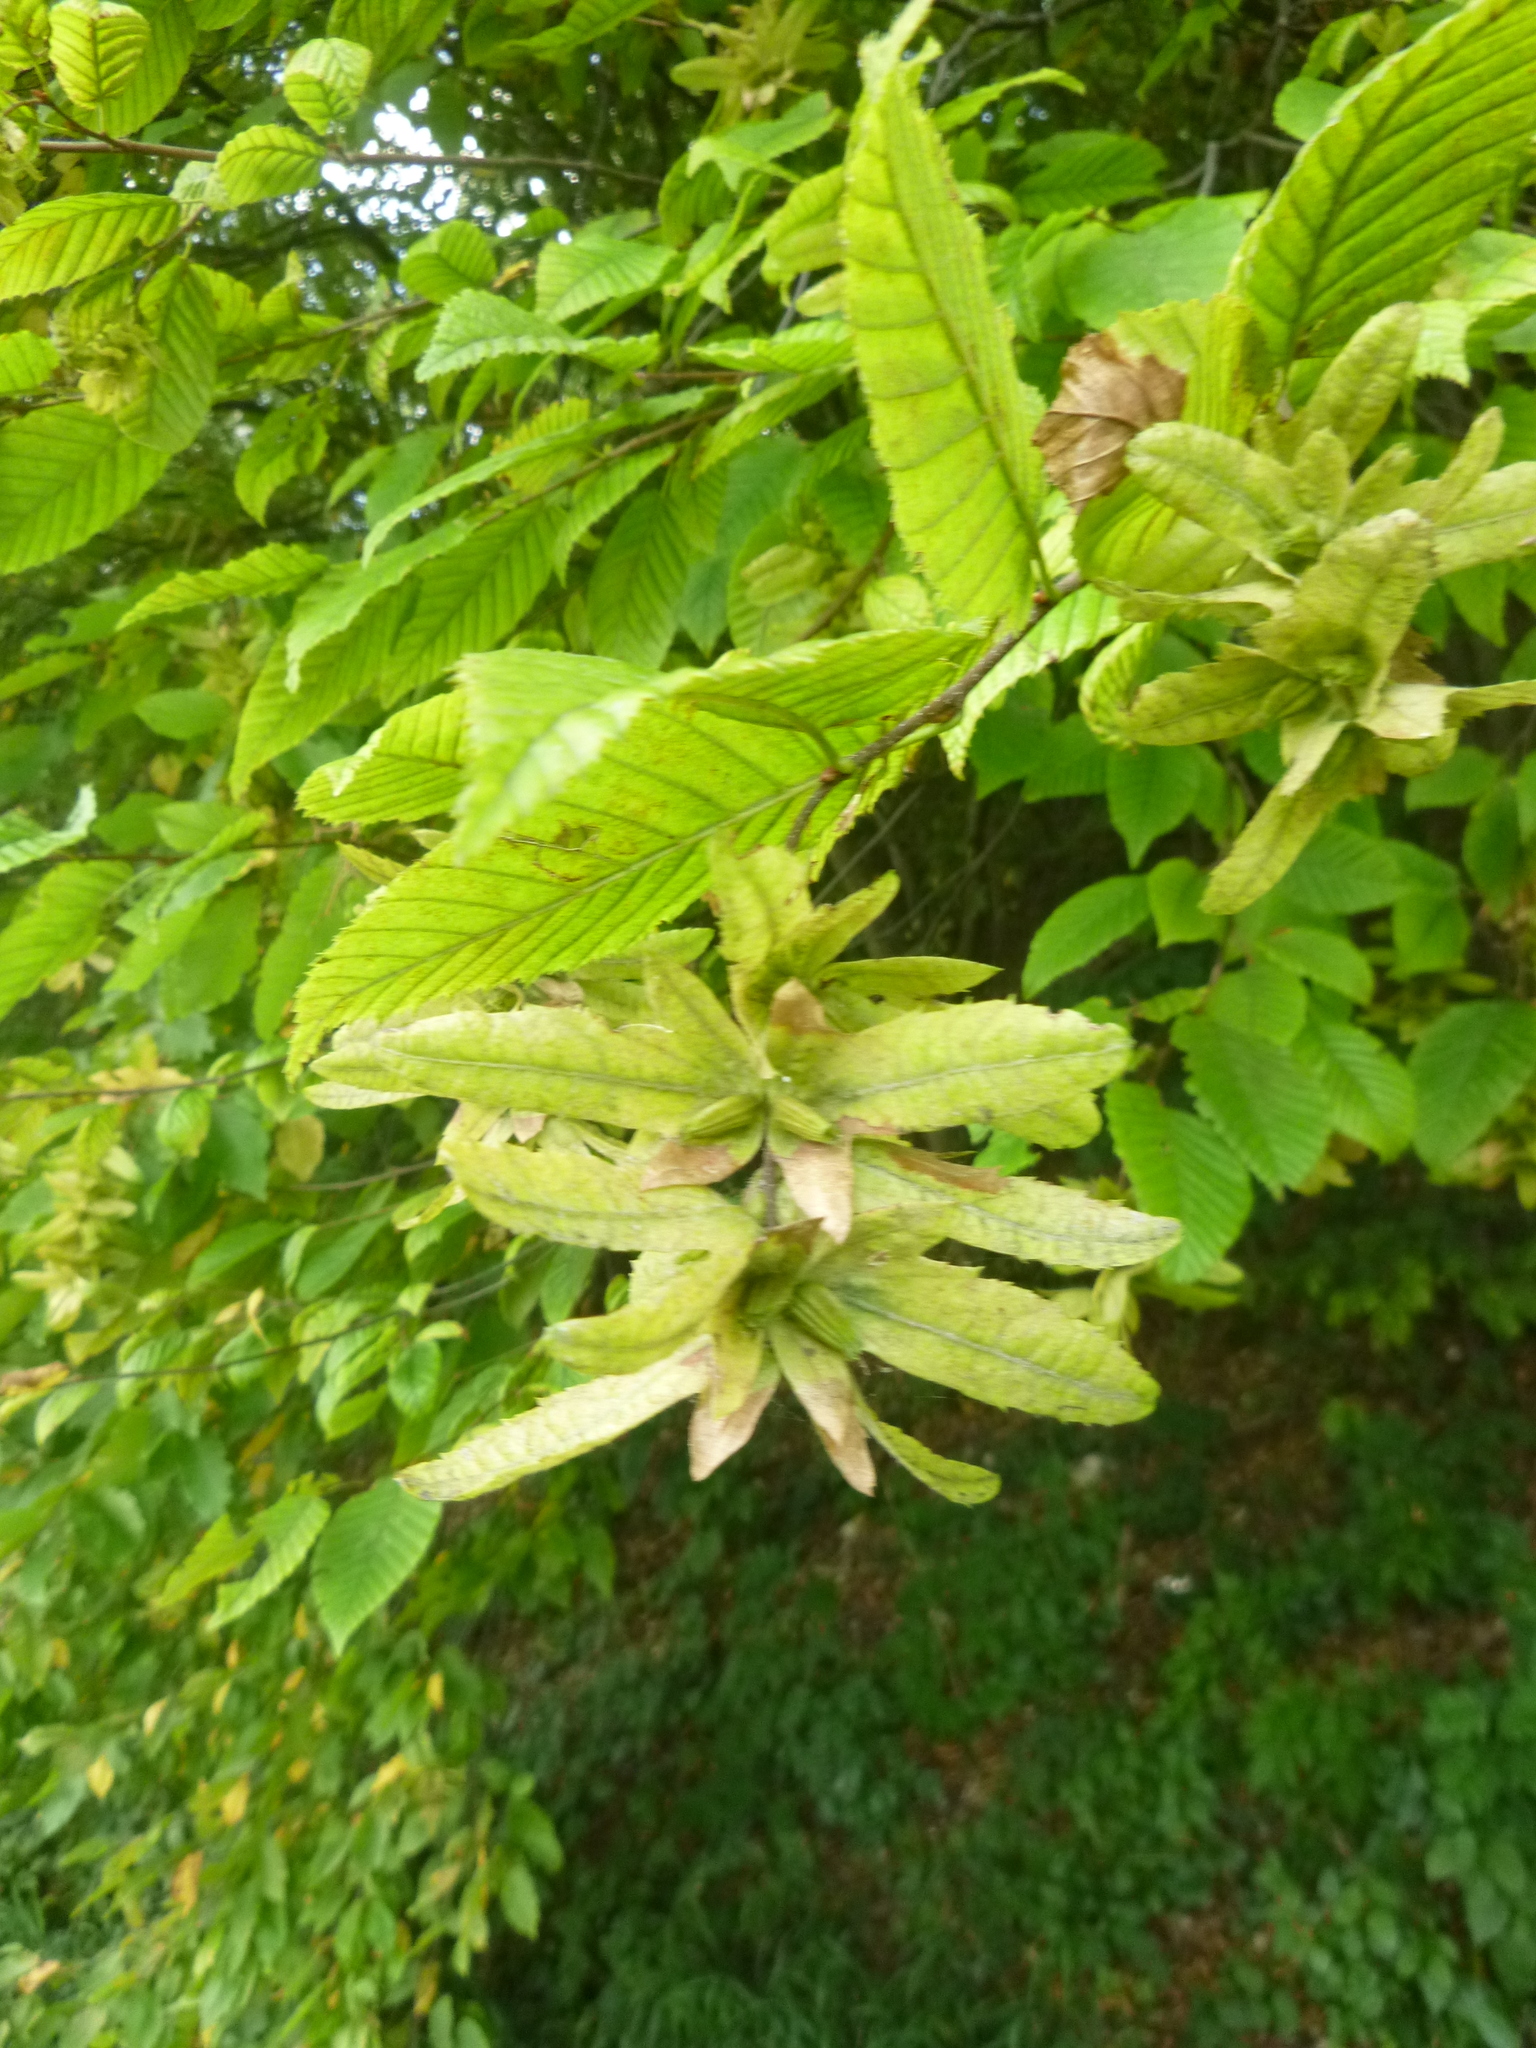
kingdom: Plantae
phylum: Tracheophyta
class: Magnoliopsida
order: Fagales
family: Betulaceae
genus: Carpinus
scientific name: Carpinus betulus
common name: Hornbeam
